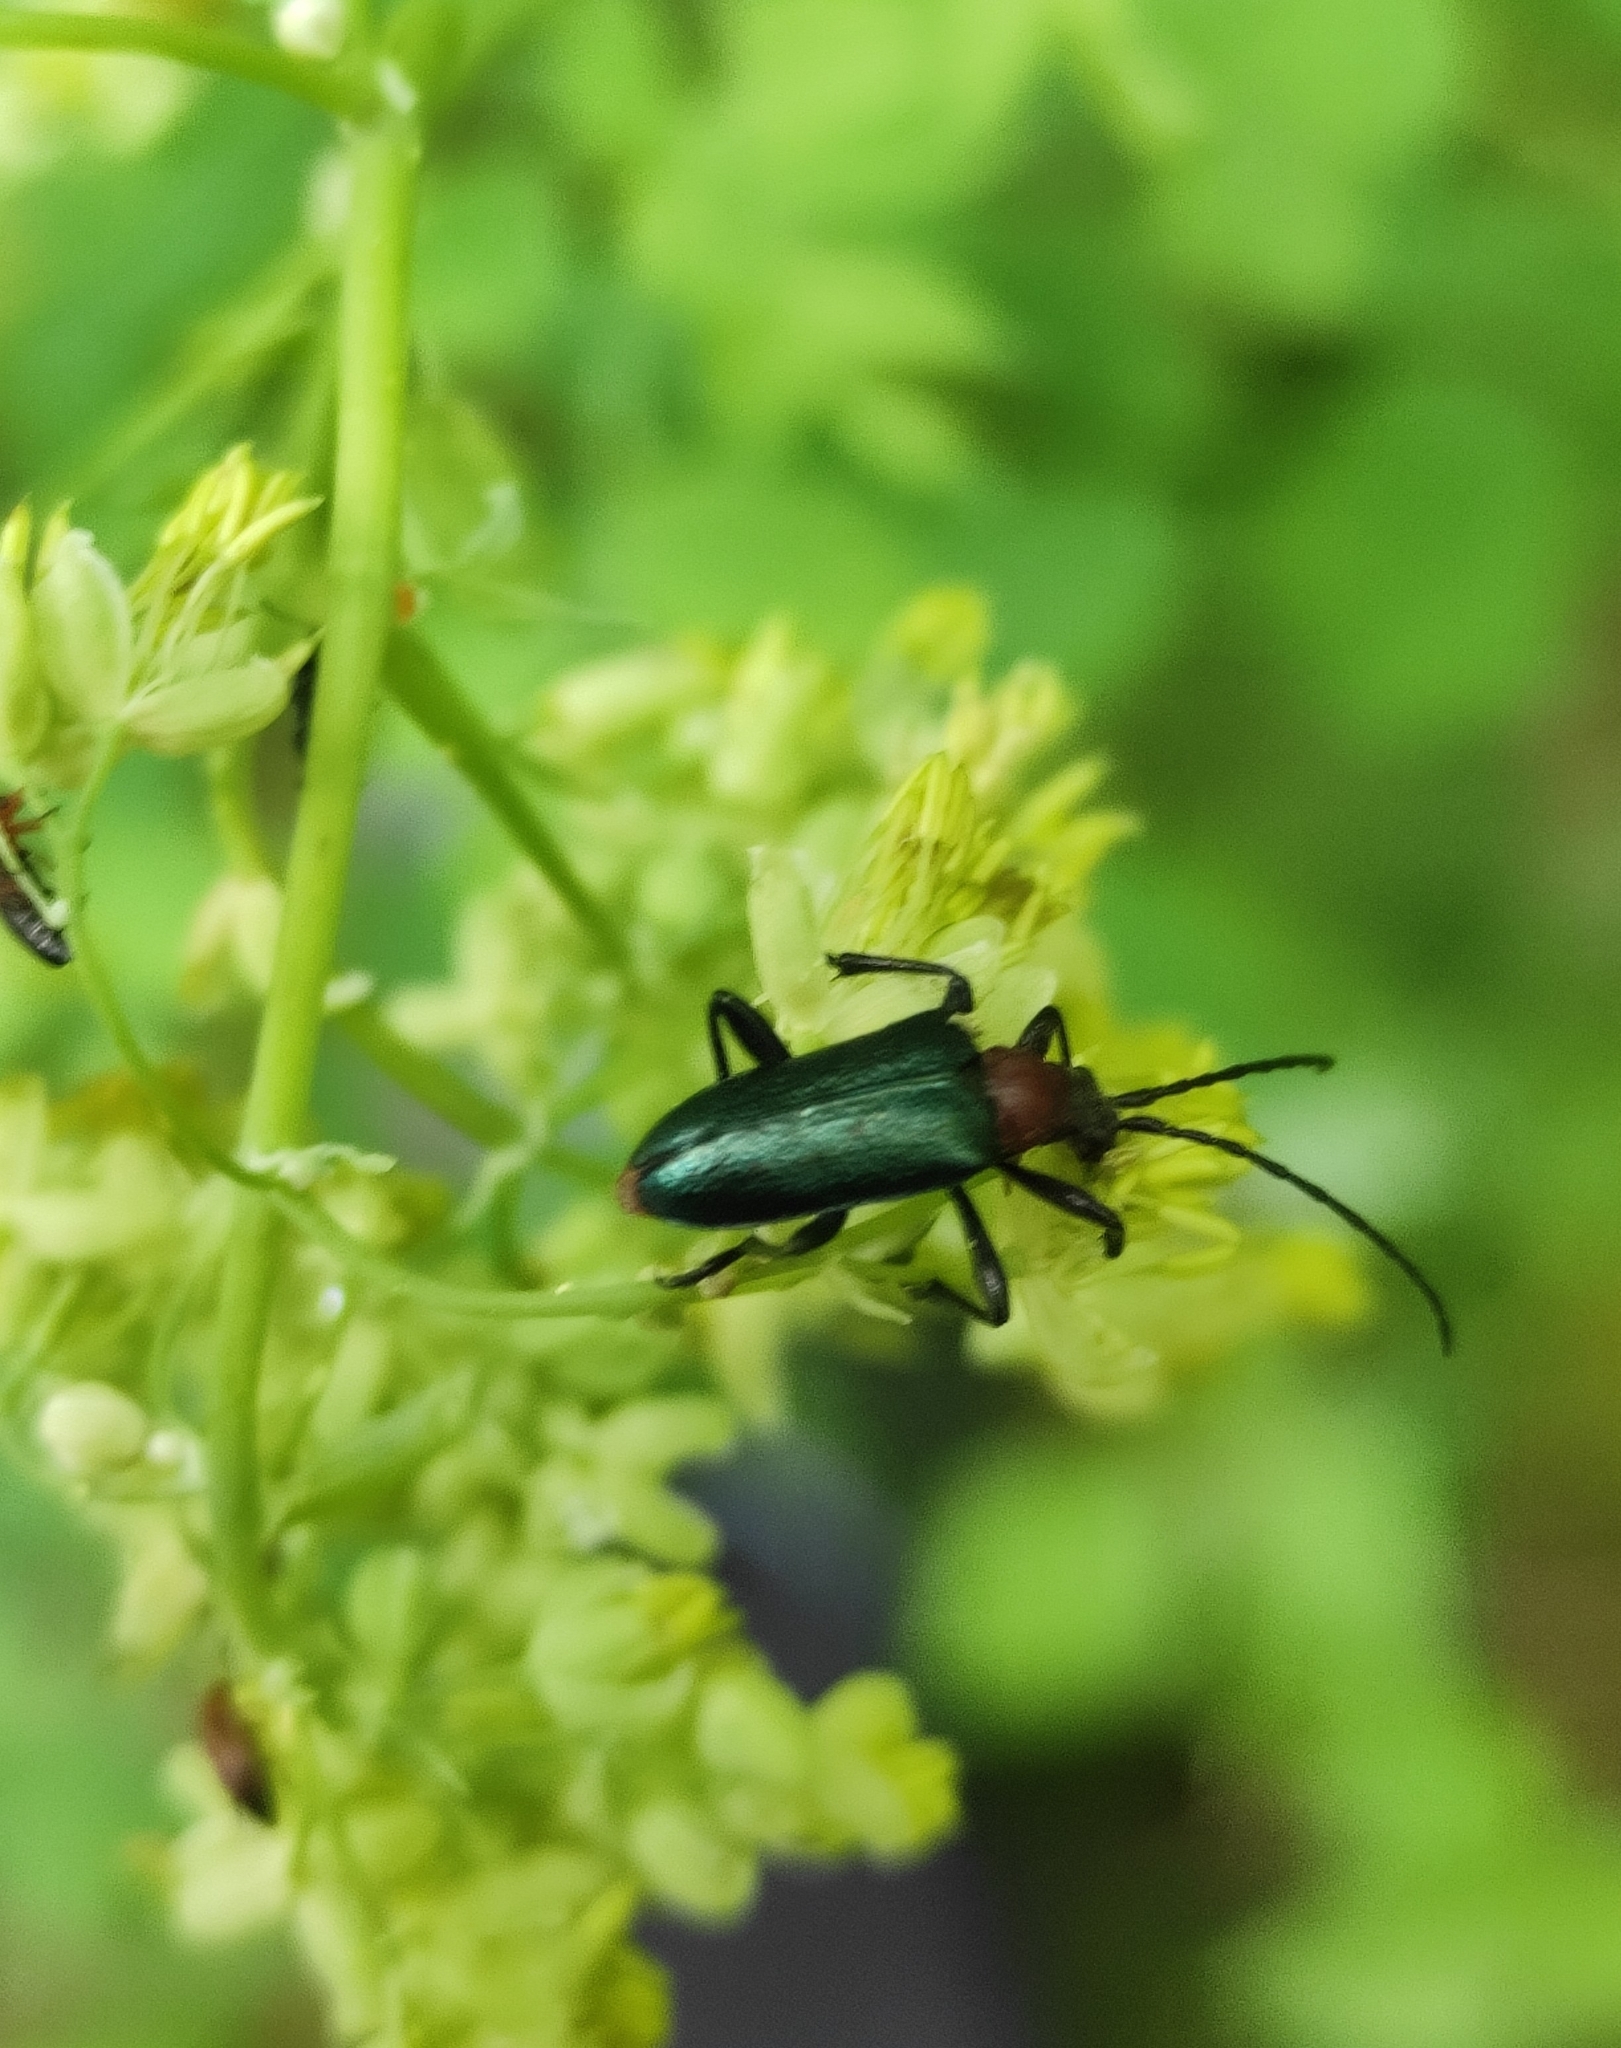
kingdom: Animalia
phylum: Arthropoda
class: Insecta
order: Coleoptera
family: Cerambycidae
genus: Gaurotes
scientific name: Gaurotes virginea
